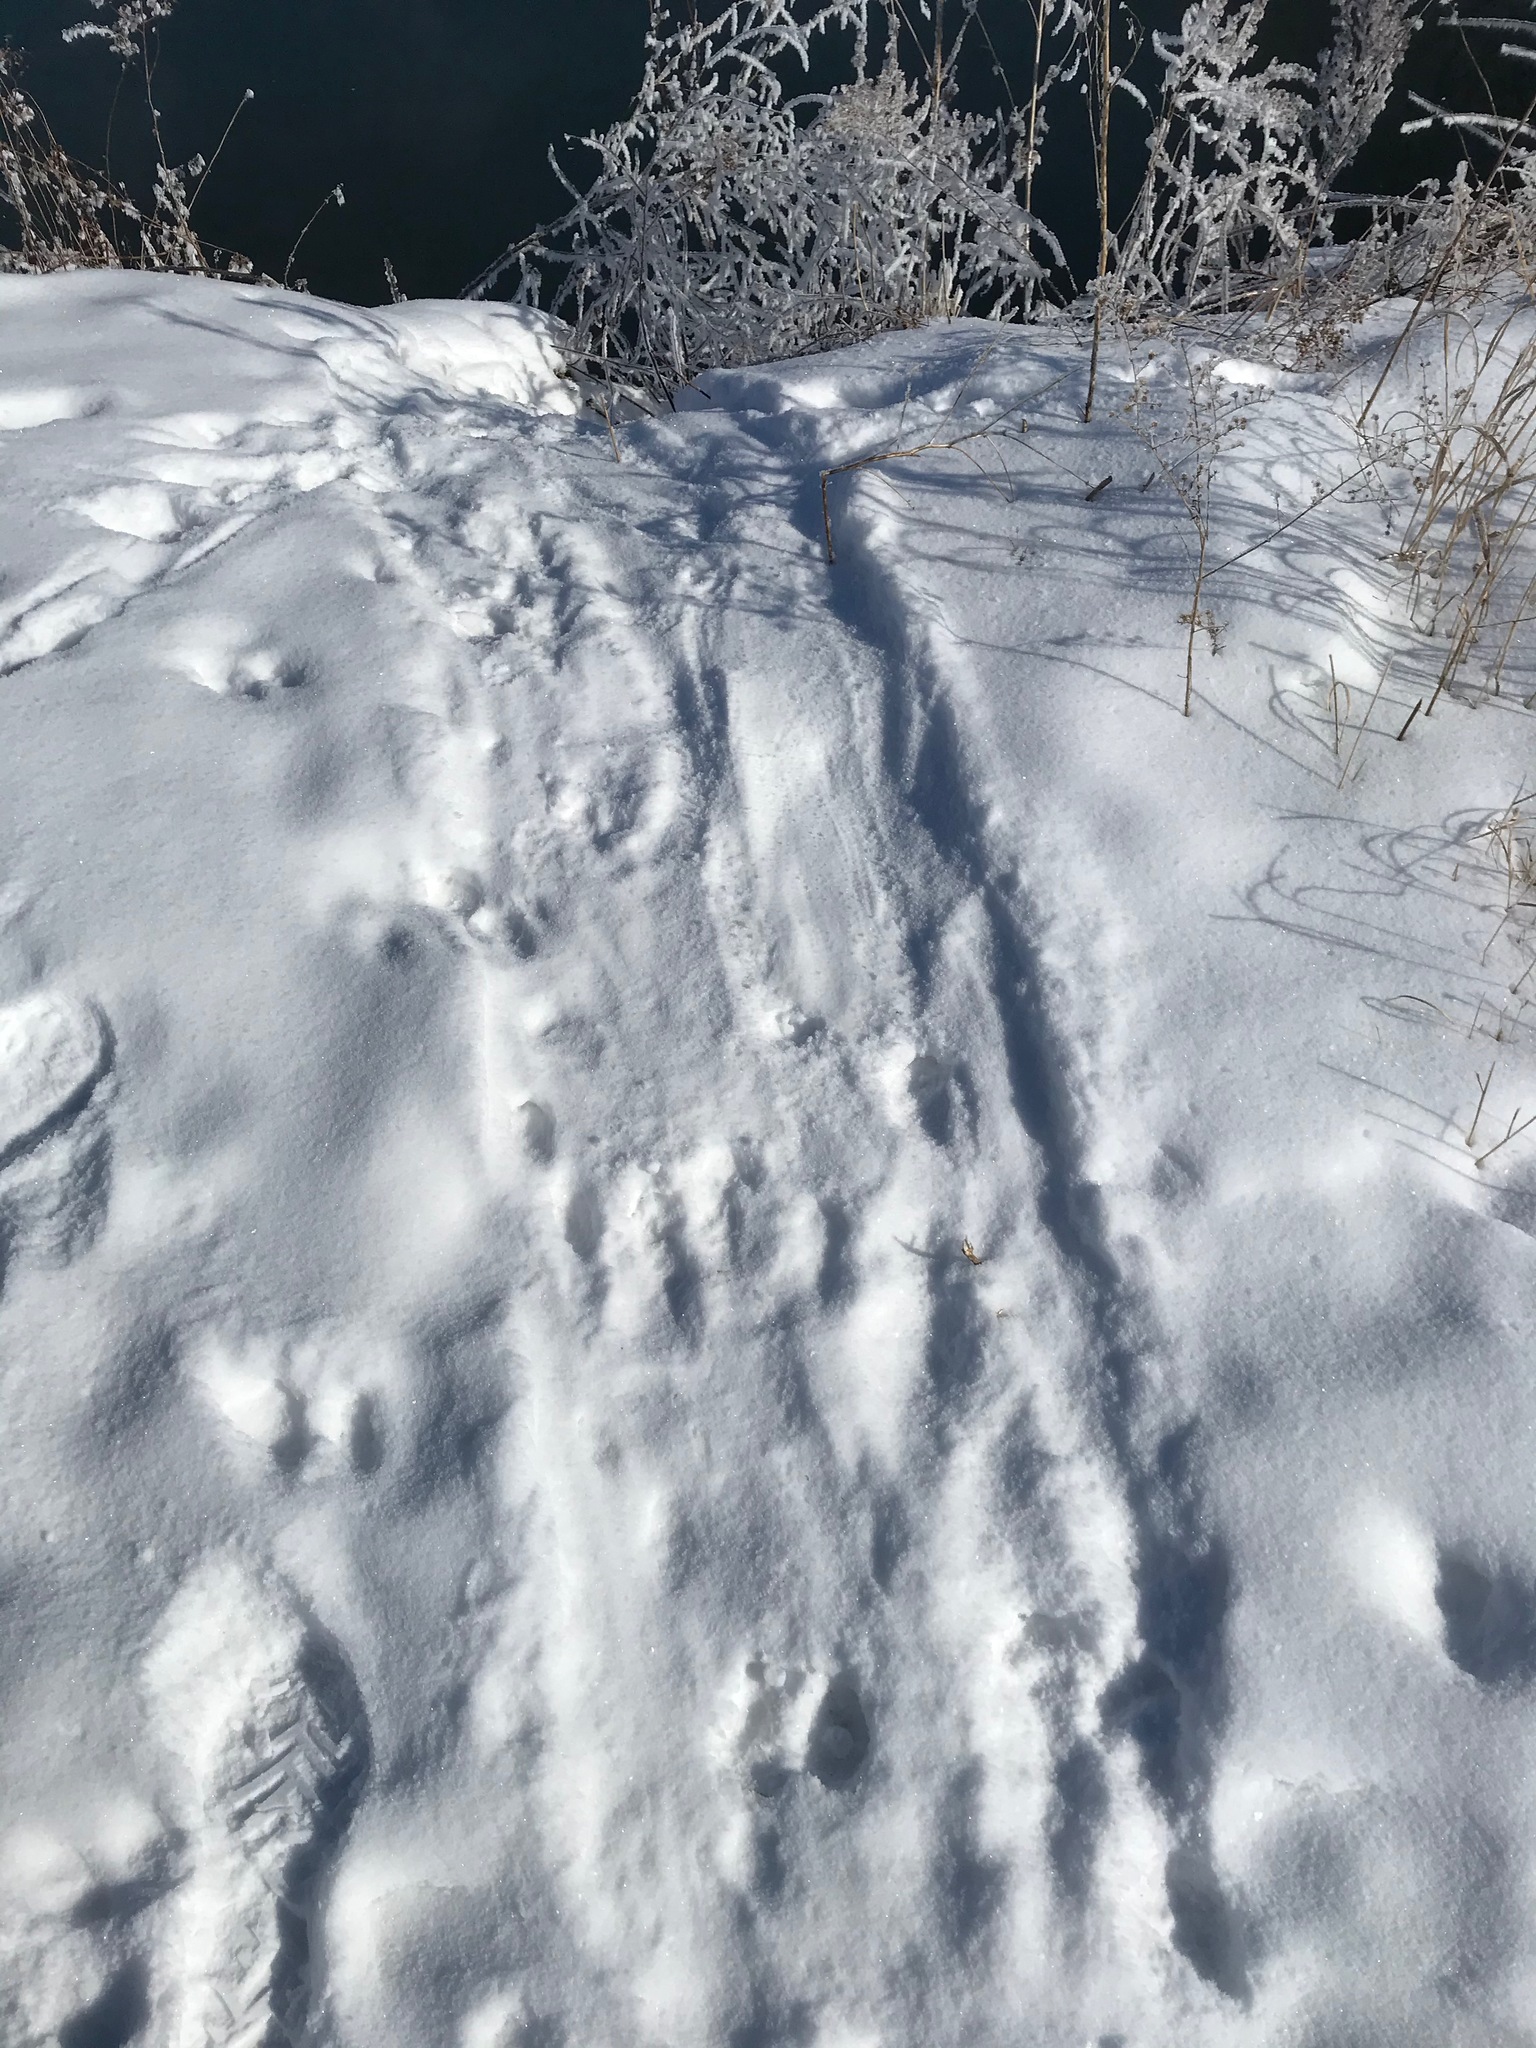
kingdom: Animalia
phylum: Chordata
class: Mammalia
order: Carnivora
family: Mustelidae
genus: Lontra
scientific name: Lontra canadensis
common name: North american river otter
